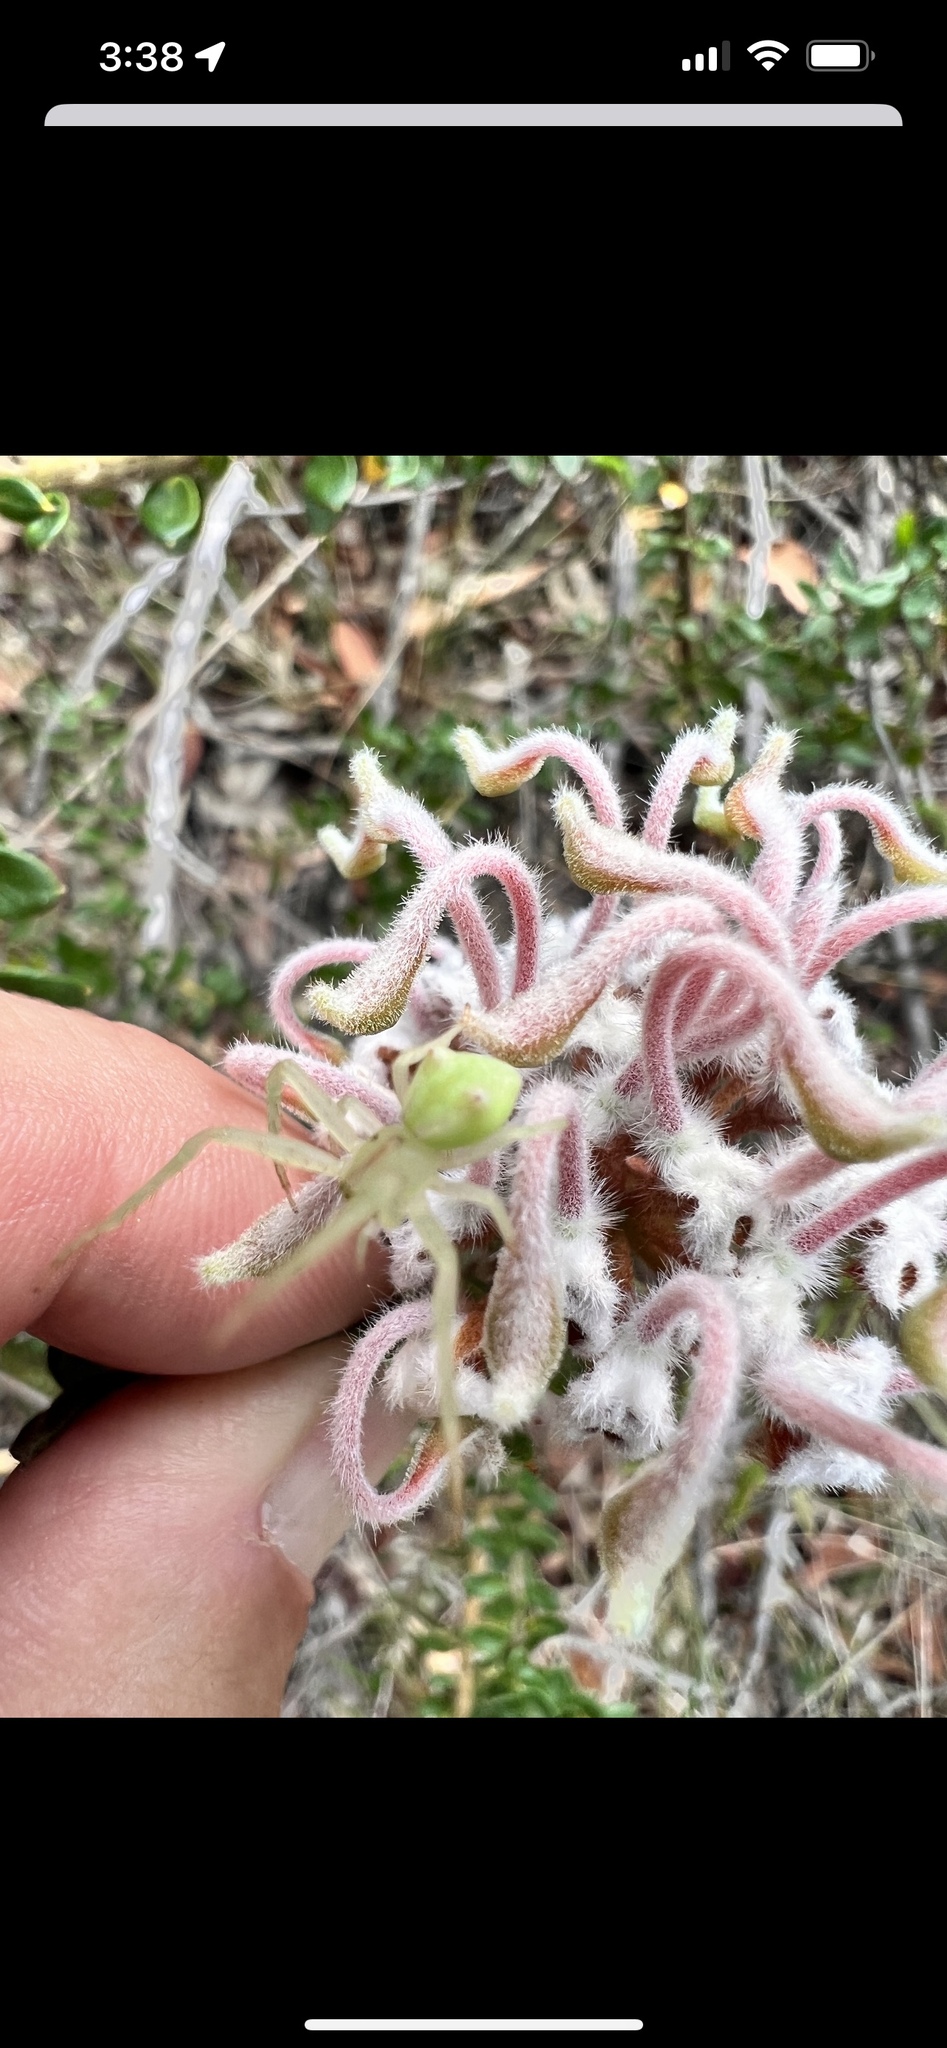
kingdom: Animalia
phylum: Arthropoda
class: Arachnida
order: Araneae
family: Thomisidae
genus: Sidymella
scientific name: Sidymella rubrosignata
